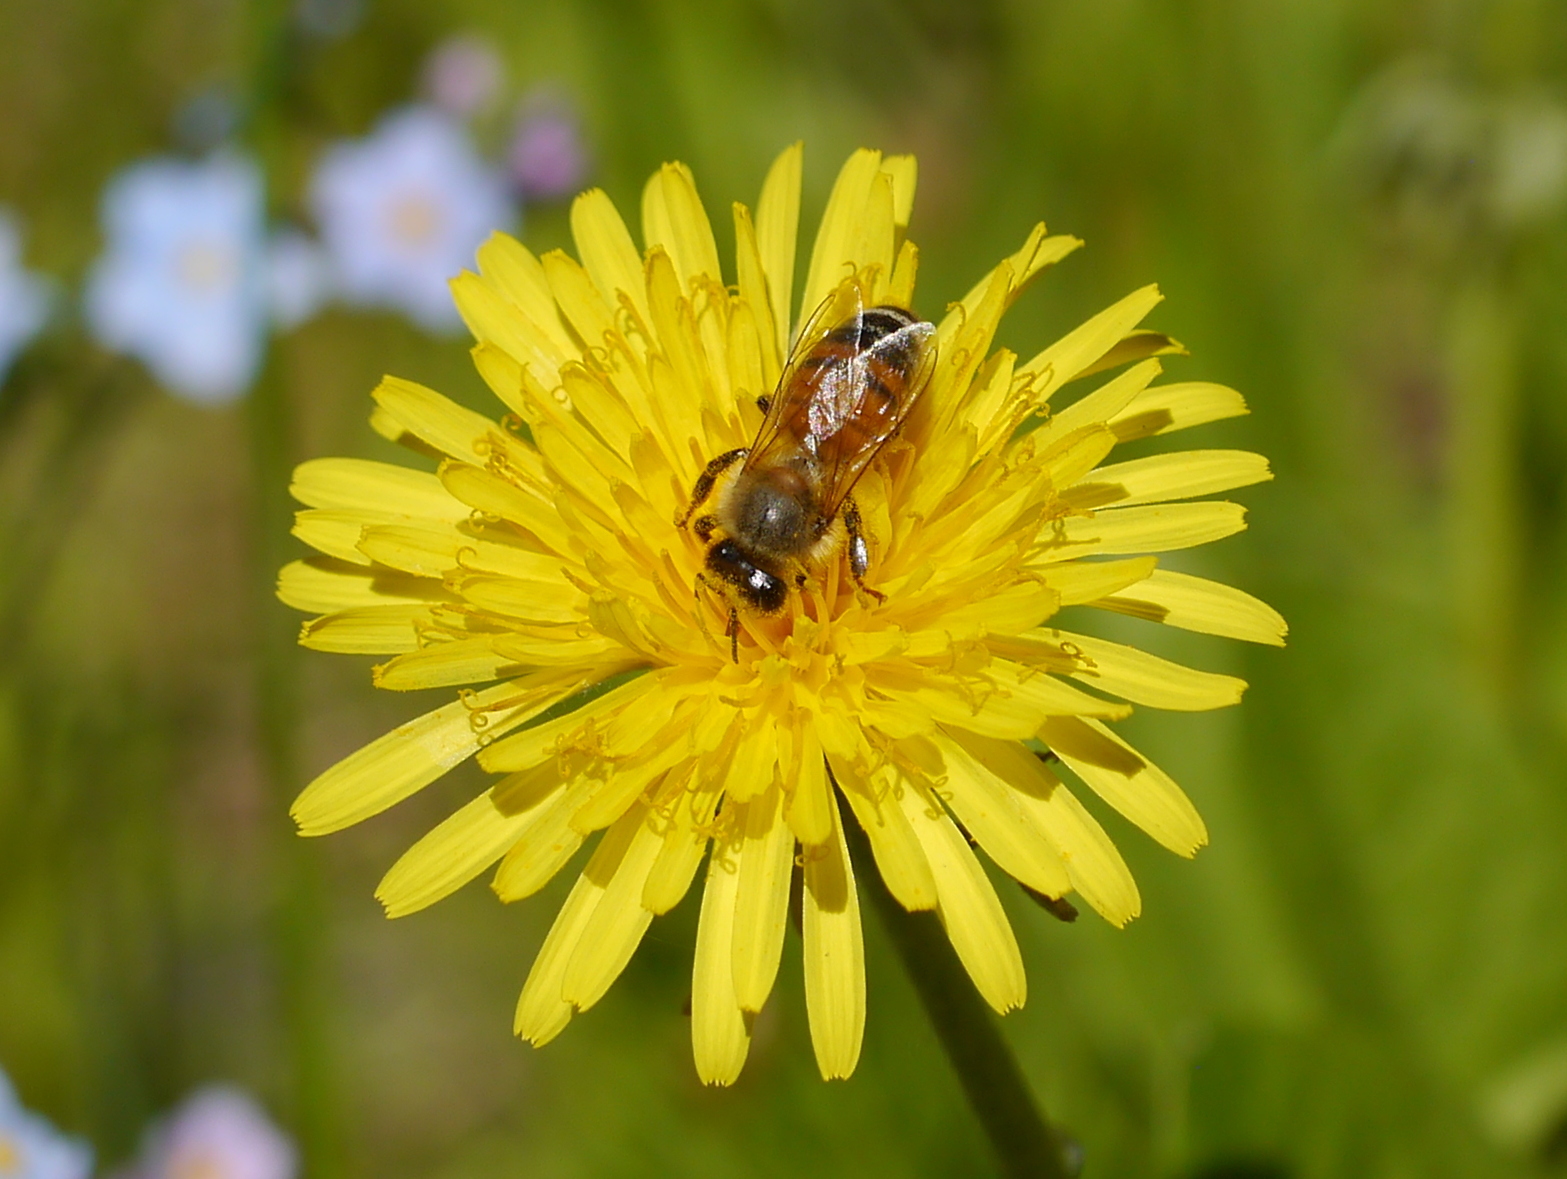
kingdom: Animalia
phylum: Arthropoda
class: Insecta
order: Hymenoptera
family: Apidae
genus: Apis
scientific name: Apis mellifera
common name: Honey bee
